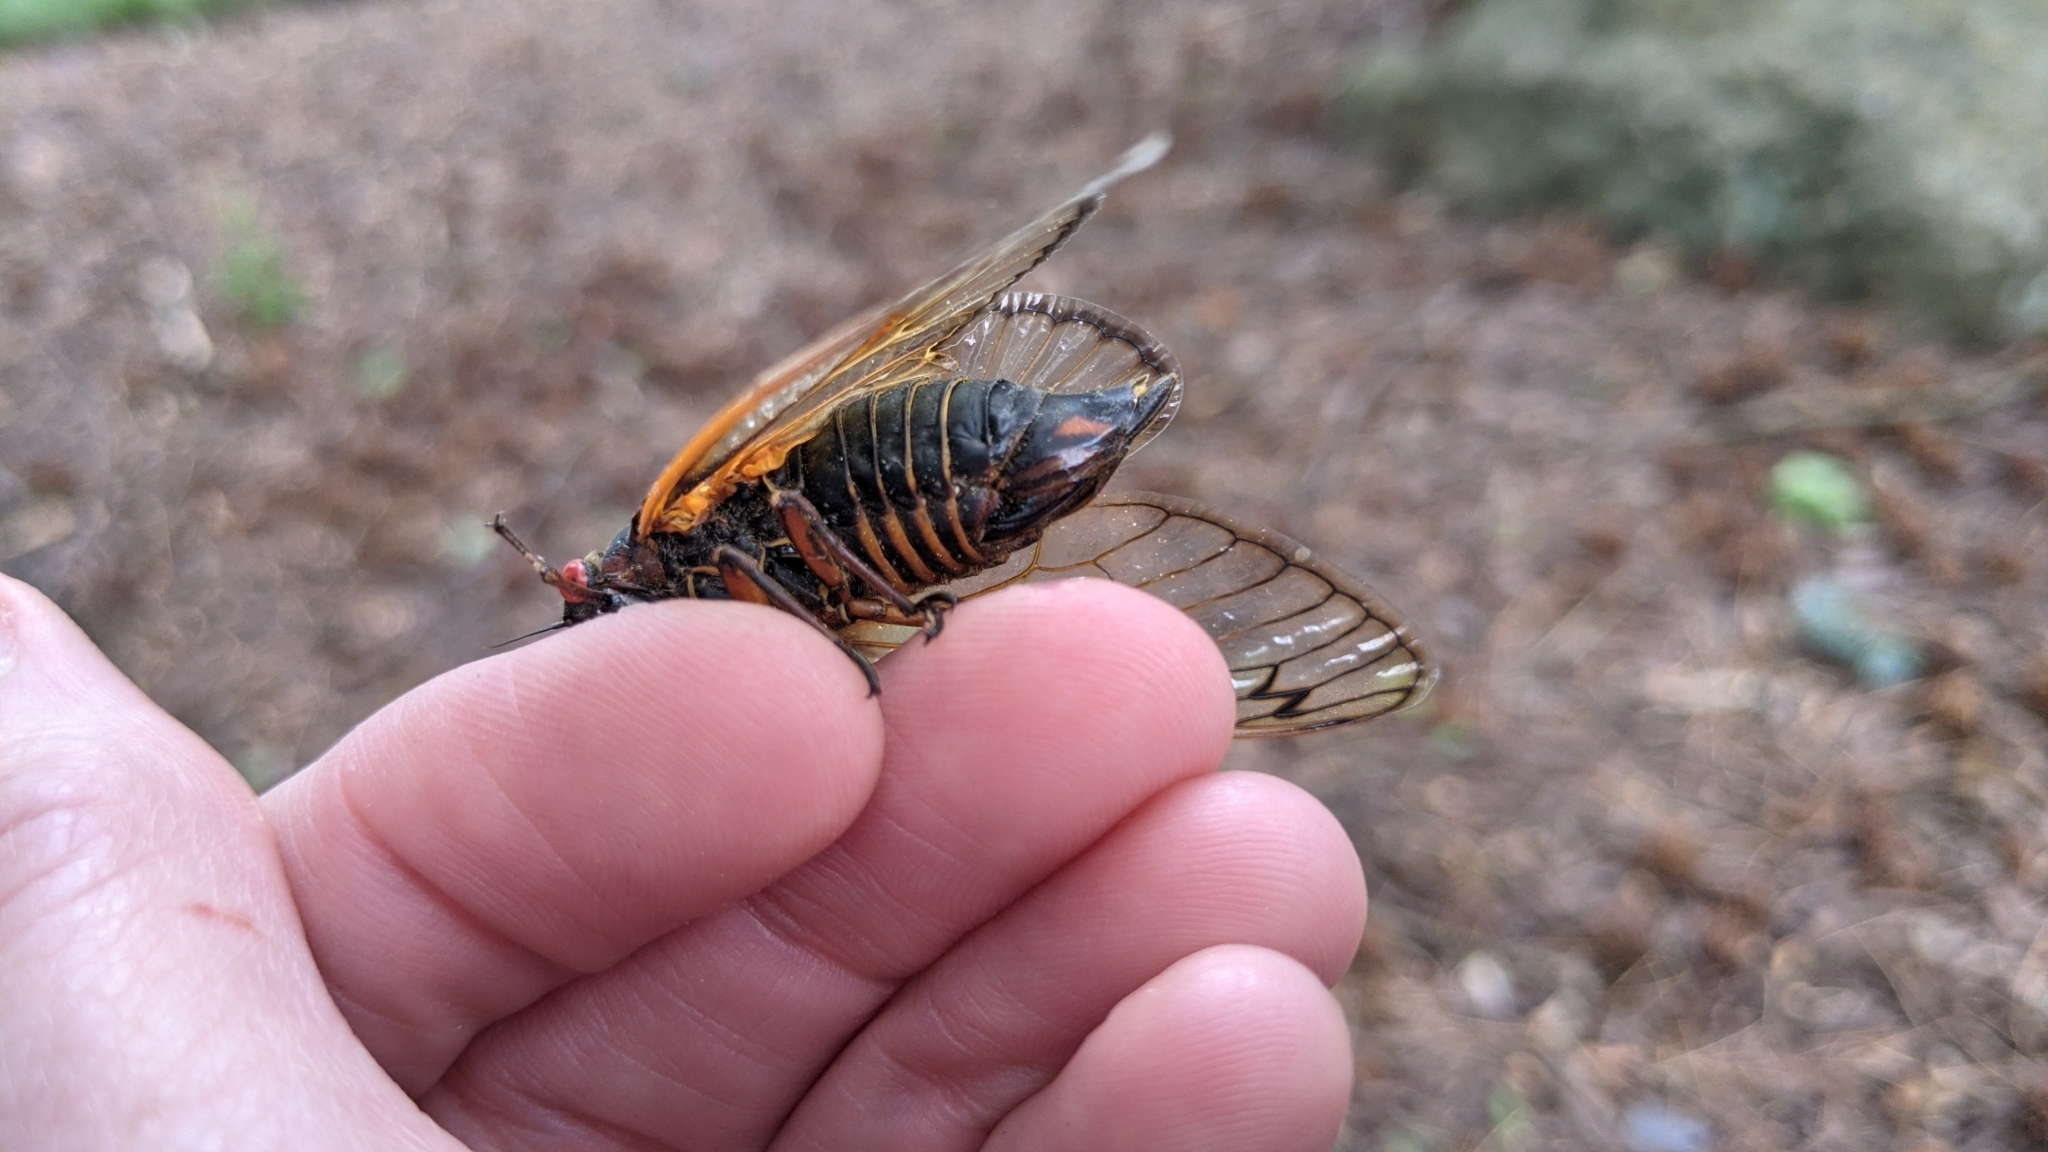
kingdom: Animalia
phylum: Arthropoda
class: Insecta
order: Hemiptera
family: Cicadidae
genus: Magicicada
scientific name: Magicicada septendecim
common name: Periodical cicada
